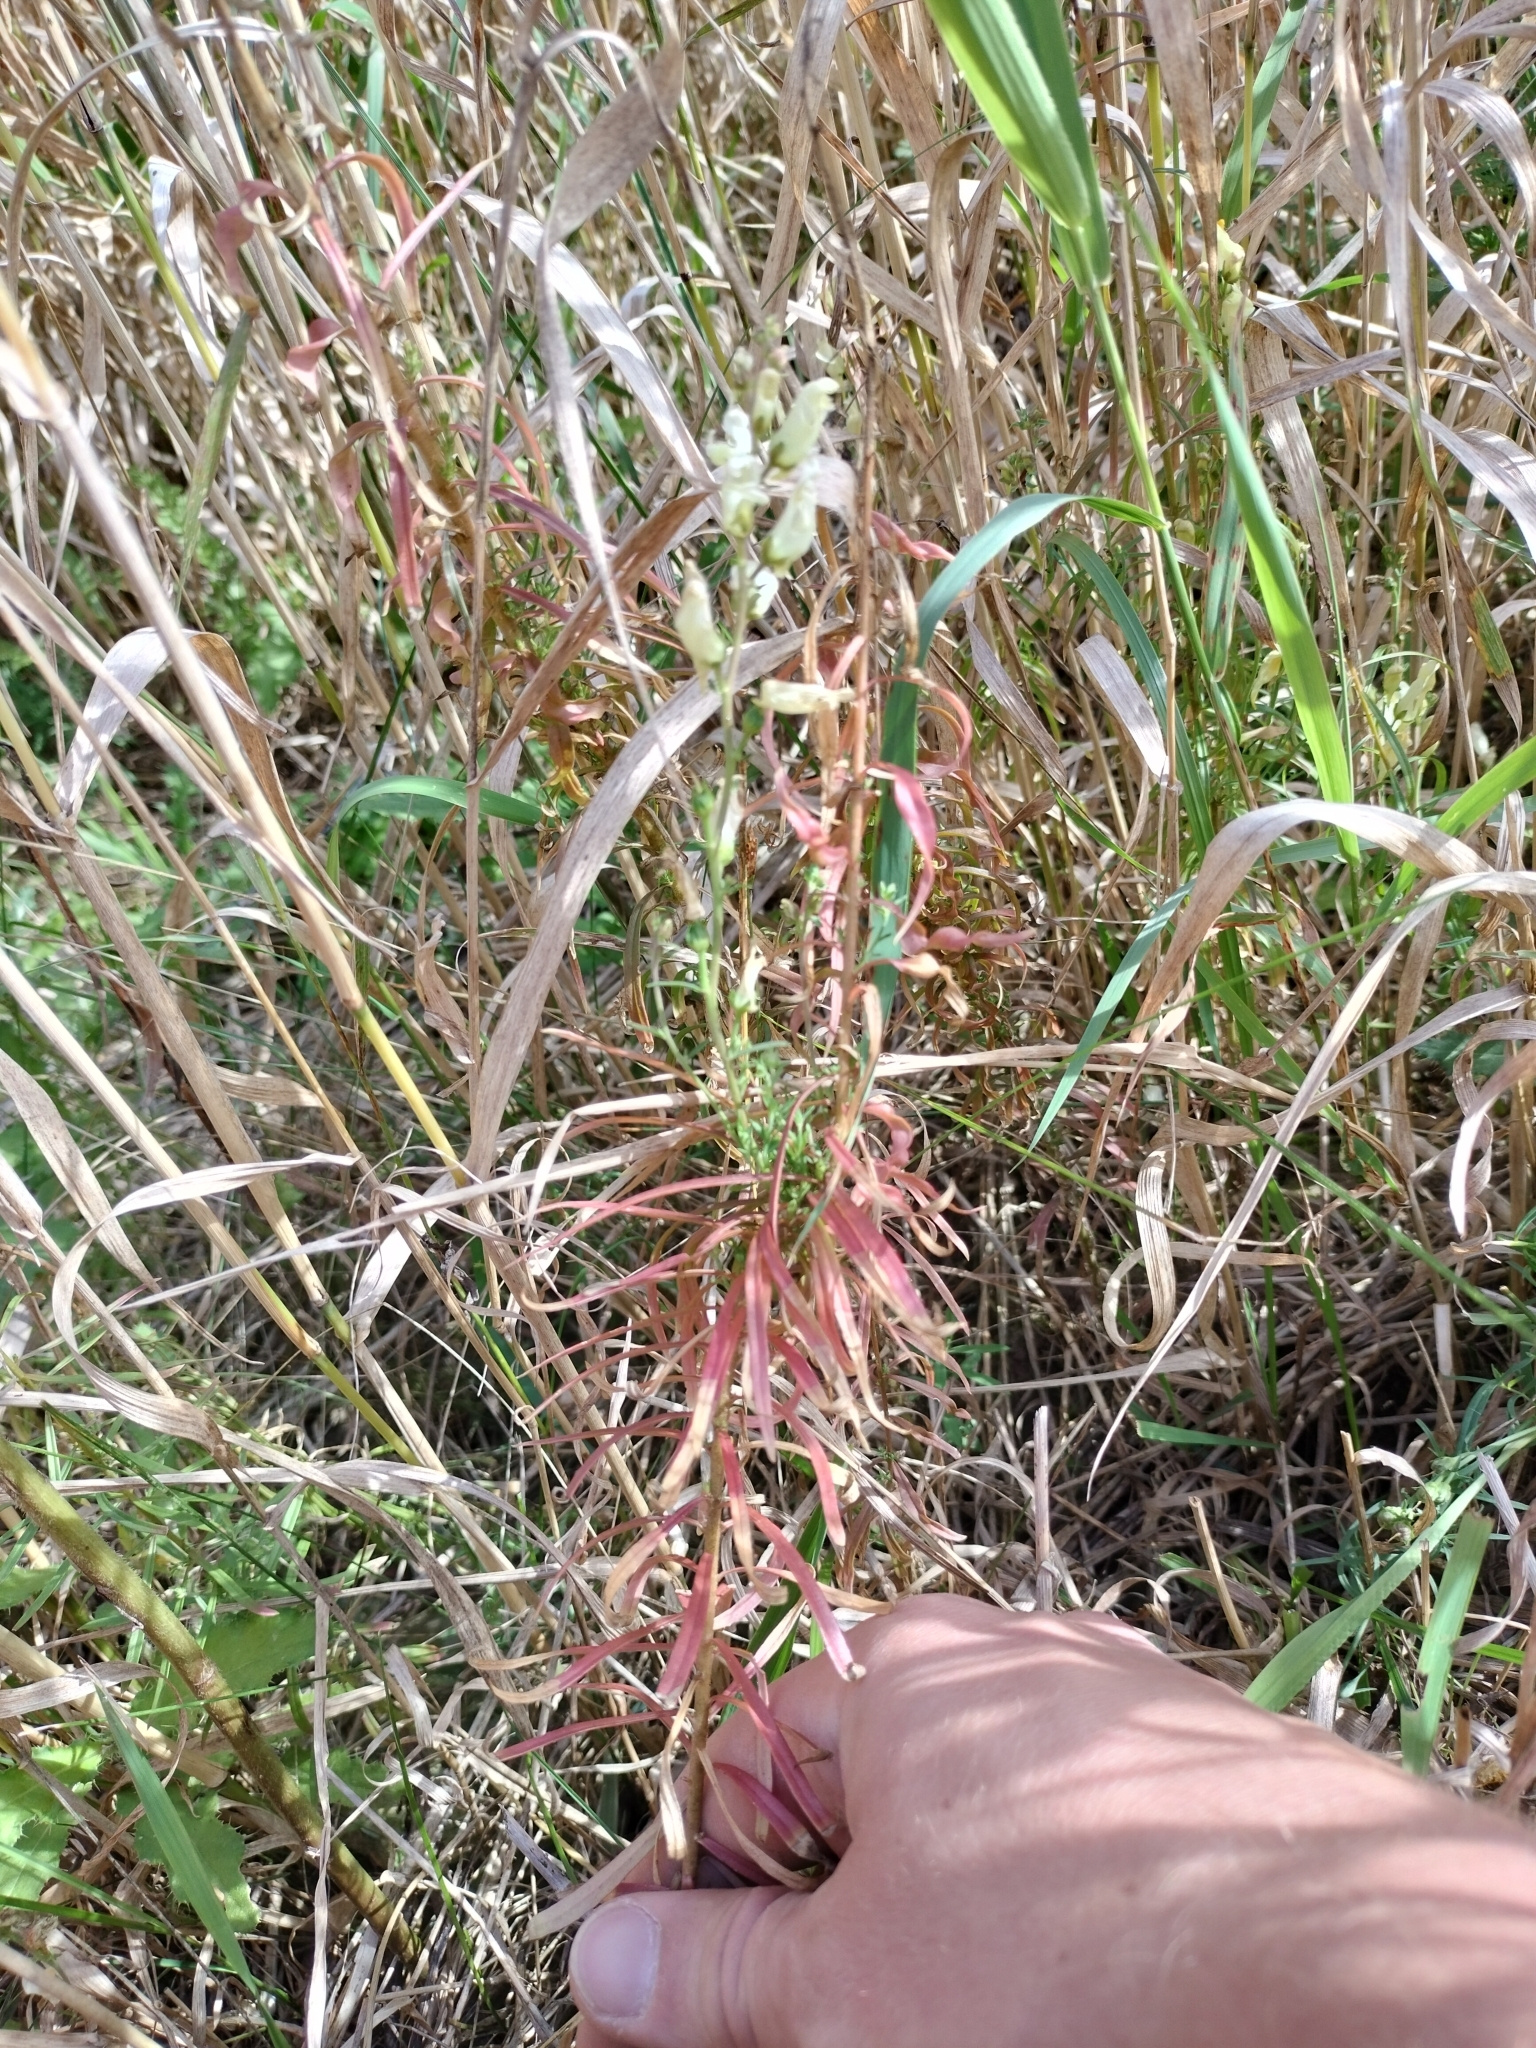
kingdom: Plantae
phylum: Tracheophyta
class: Magnoliopsida
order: Lamiales
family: Plantaginaceae
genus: Linaria
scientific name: Linaria vulgaris
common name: Butter and eggs
